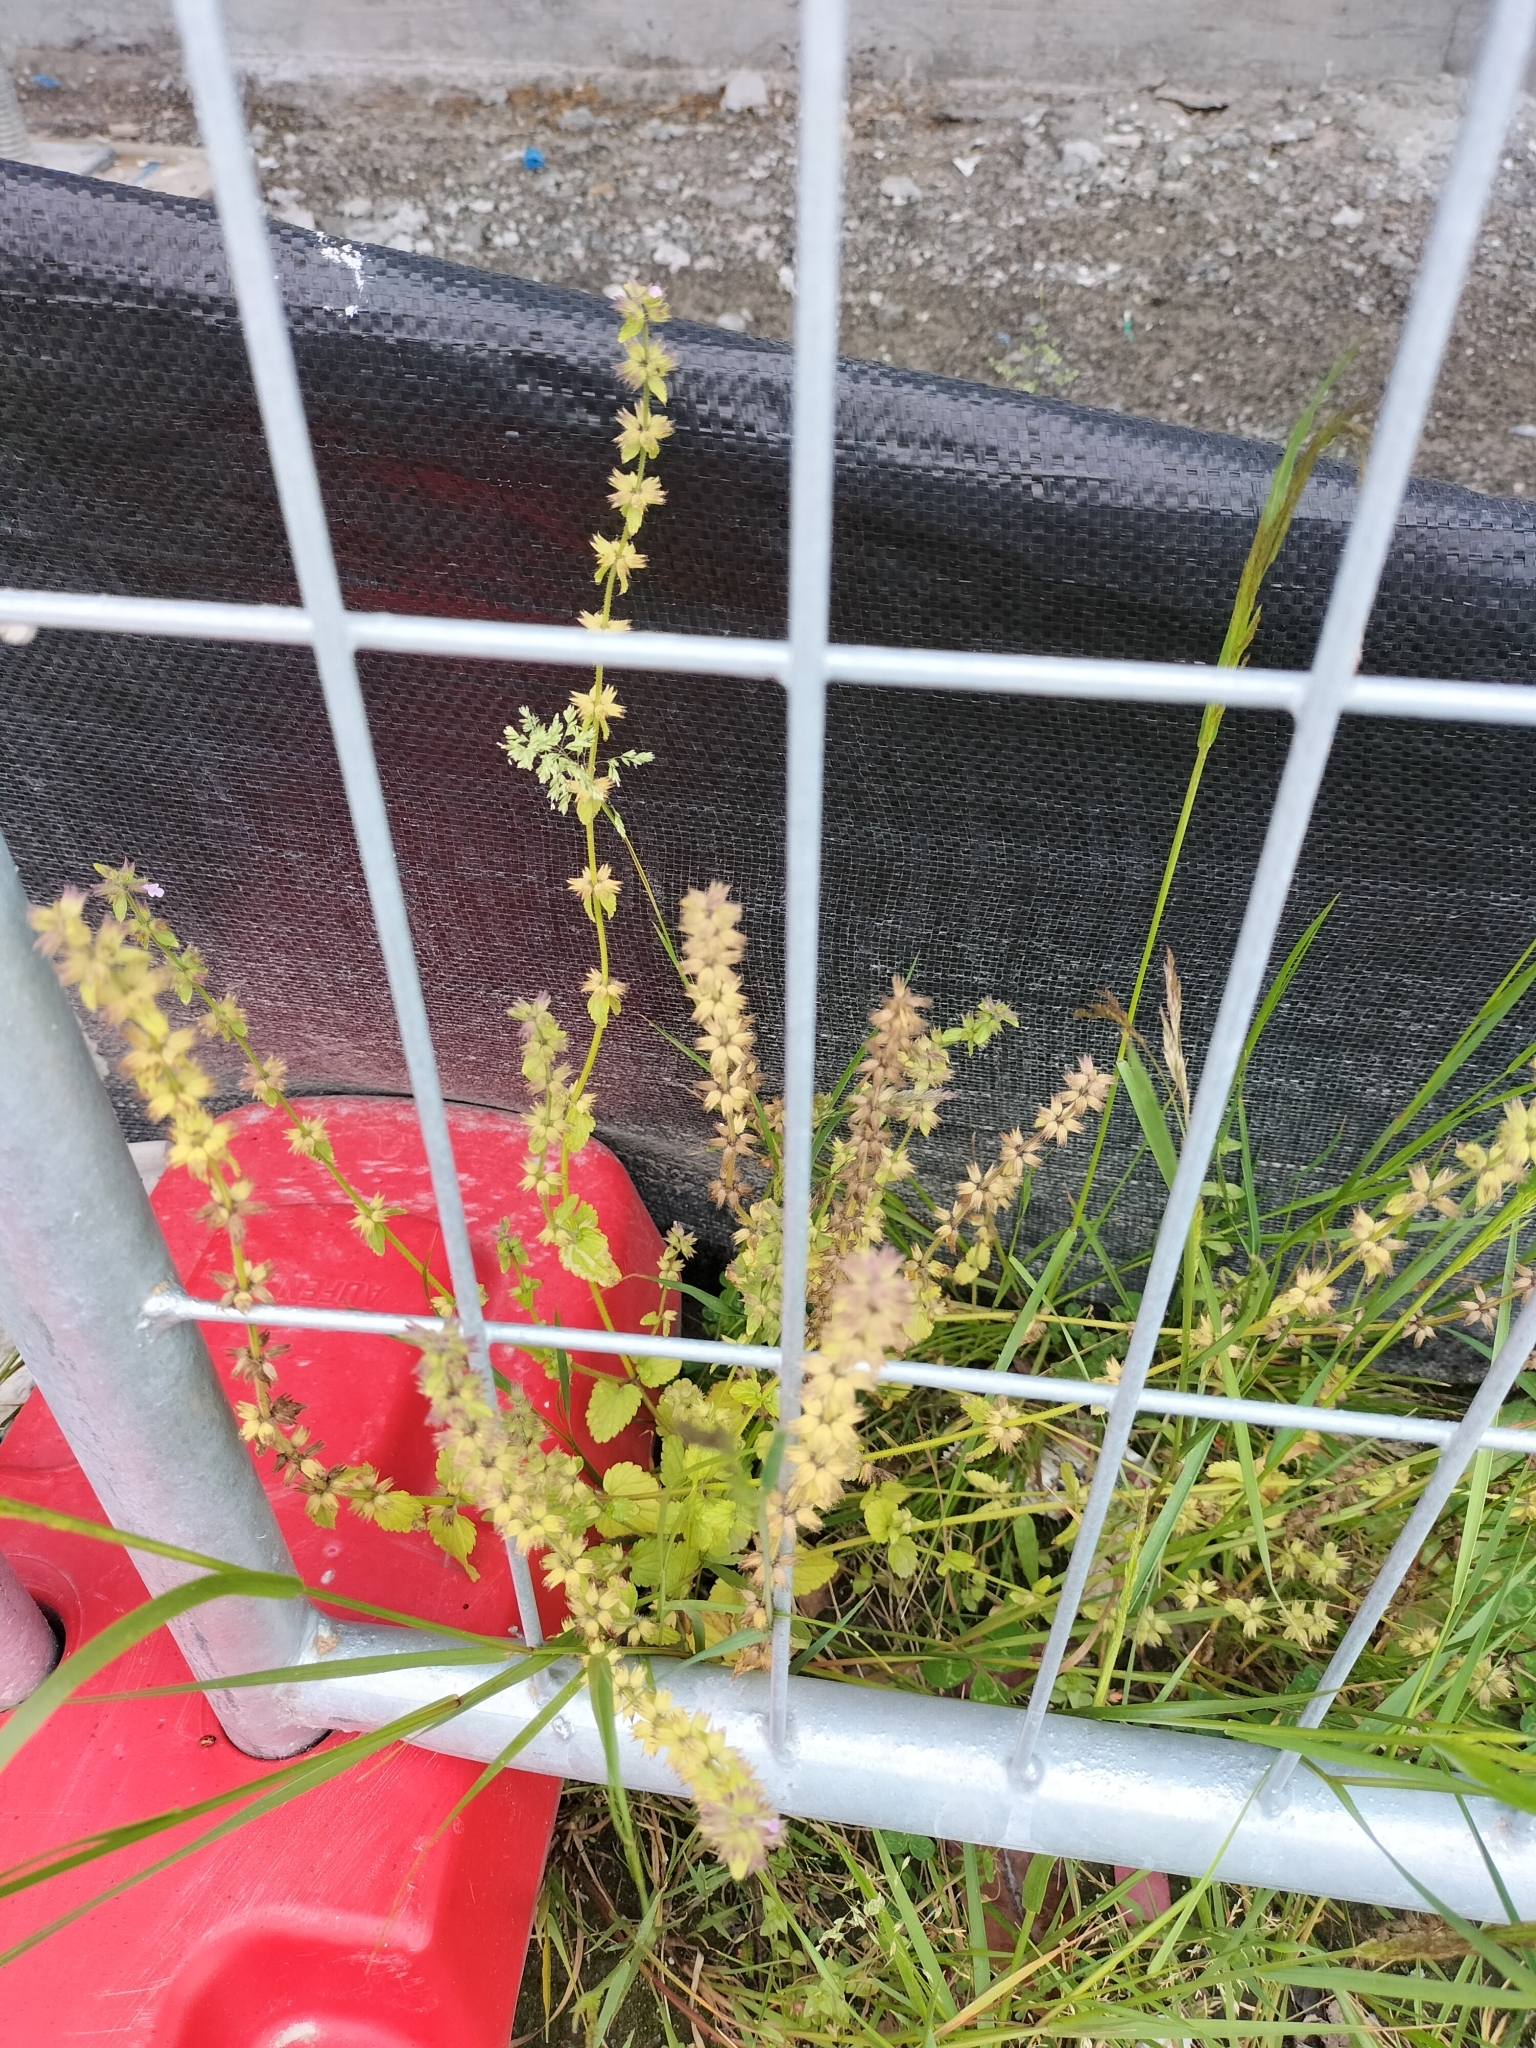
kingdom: Plantae
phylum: Tracheophyta
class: Magnoliopsida
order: Lamiales
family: Lamiaceae
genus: Stachys
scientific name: Stachys arvensis
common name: Field woundwort
